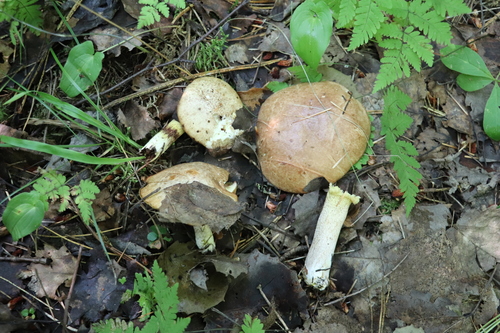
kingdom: Fungi
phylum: Basidiomycota
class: Agaricomycetes
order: Boletales
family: Suillaceae
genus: Suillus
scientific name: Suillus placidus
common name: Slippery white bolete
